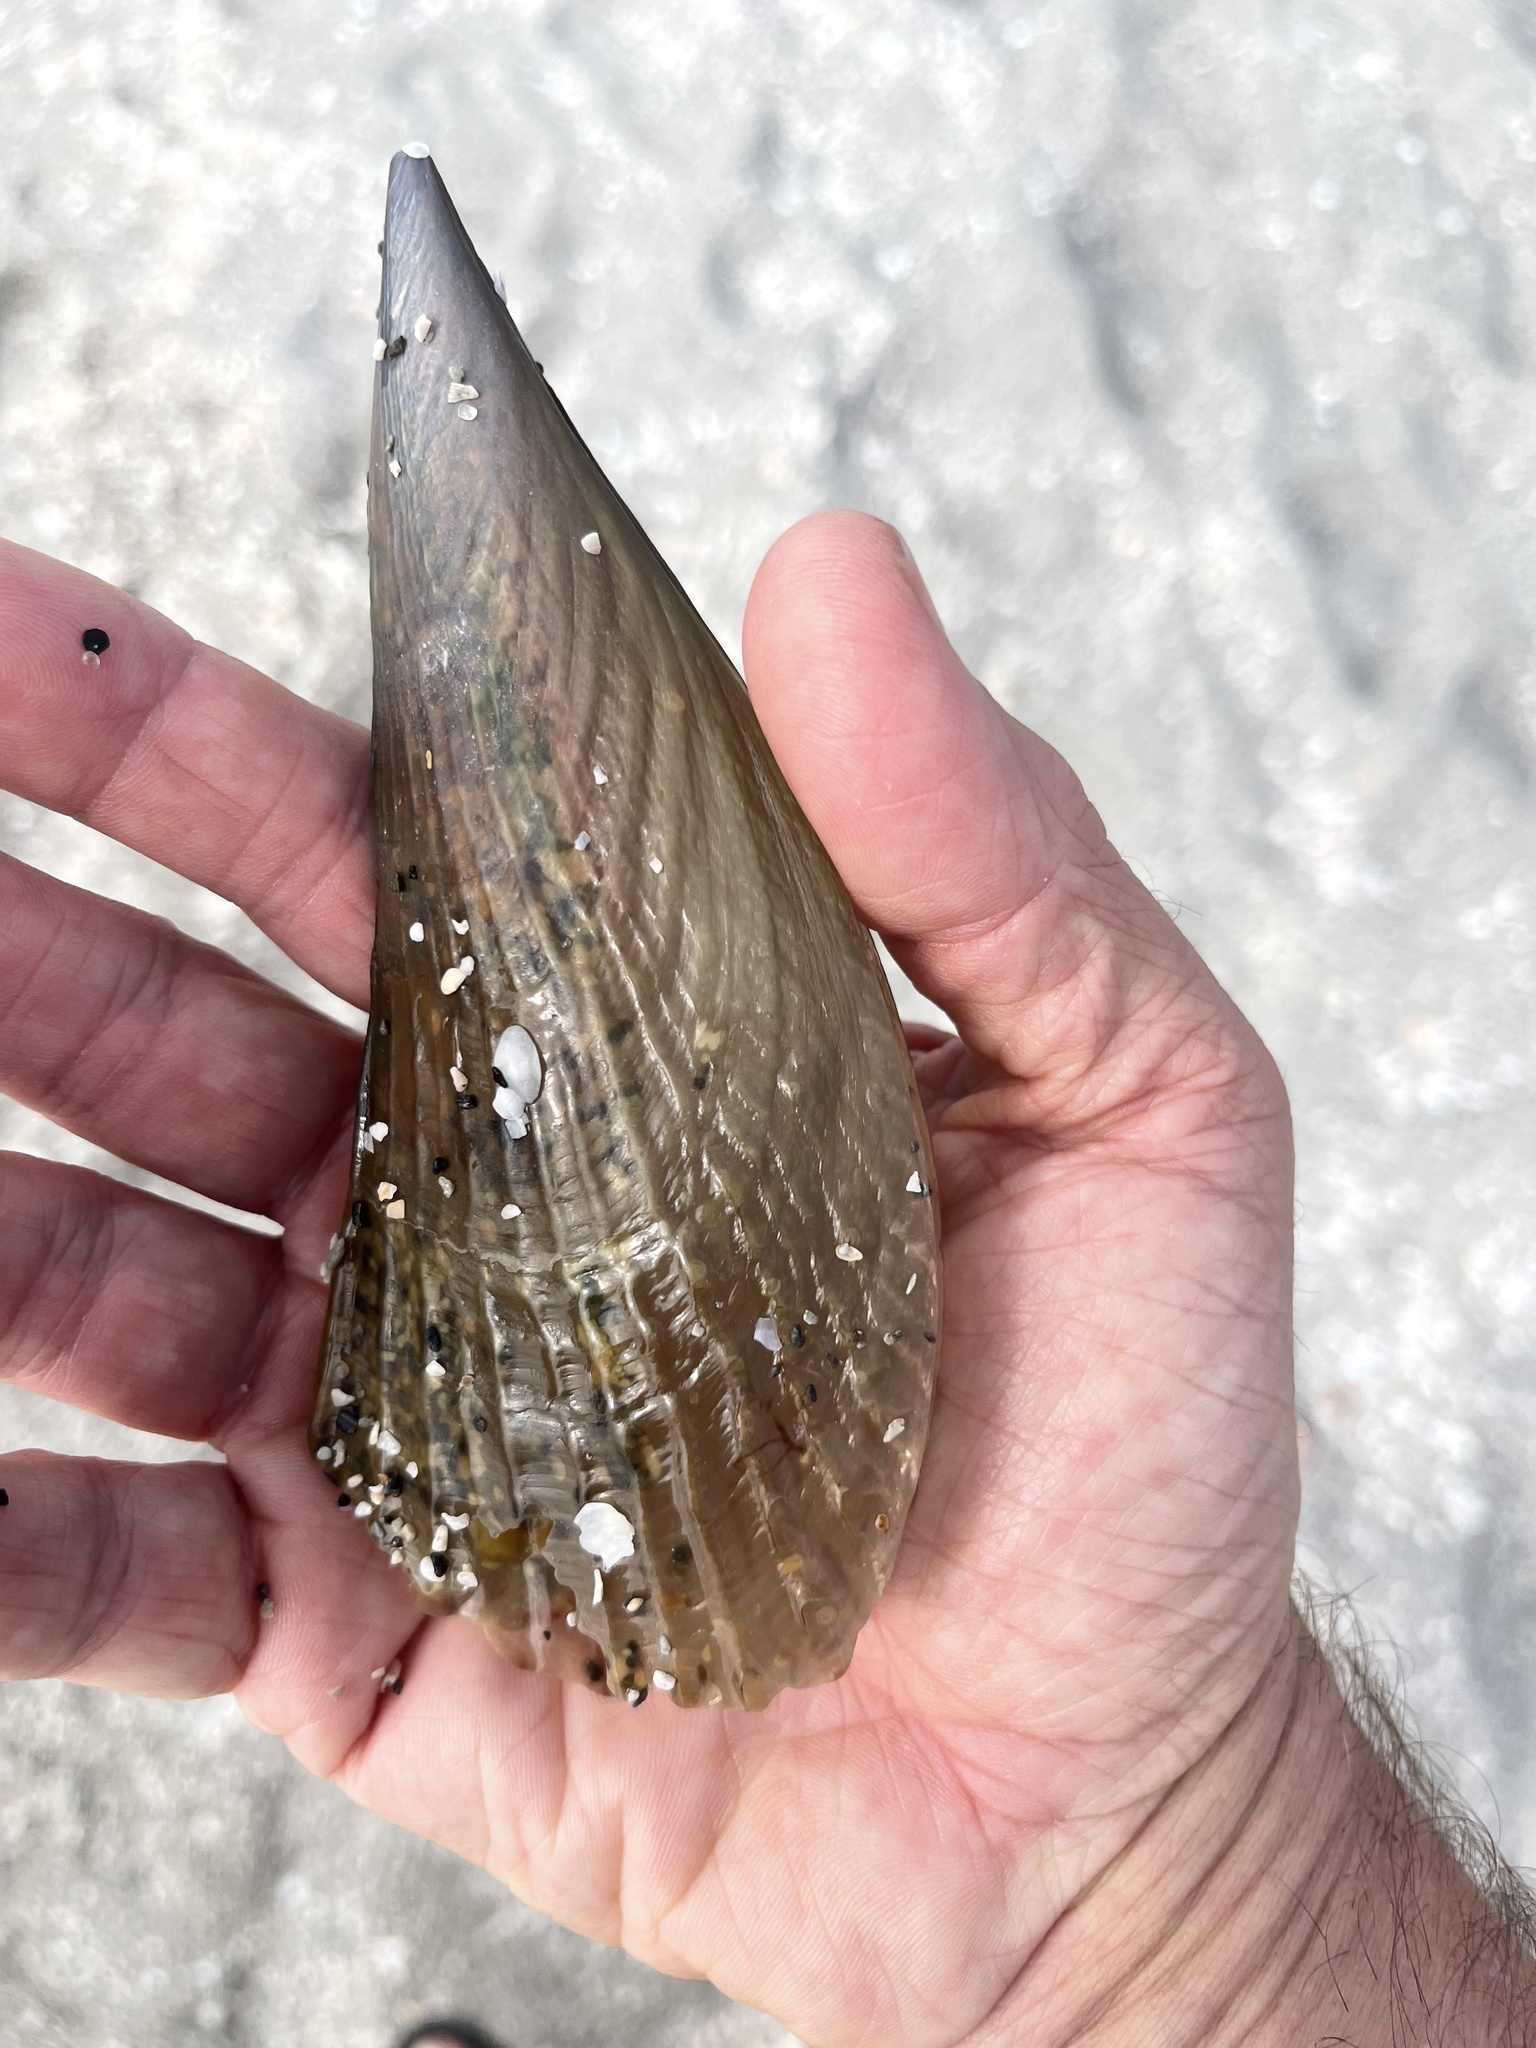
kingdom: Animalia
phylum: Mollusca
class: Bivalvia
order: Ostreida
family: Pinnidae
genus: Atrina
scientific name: Atrina seminuda
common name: Half-naked penshell
